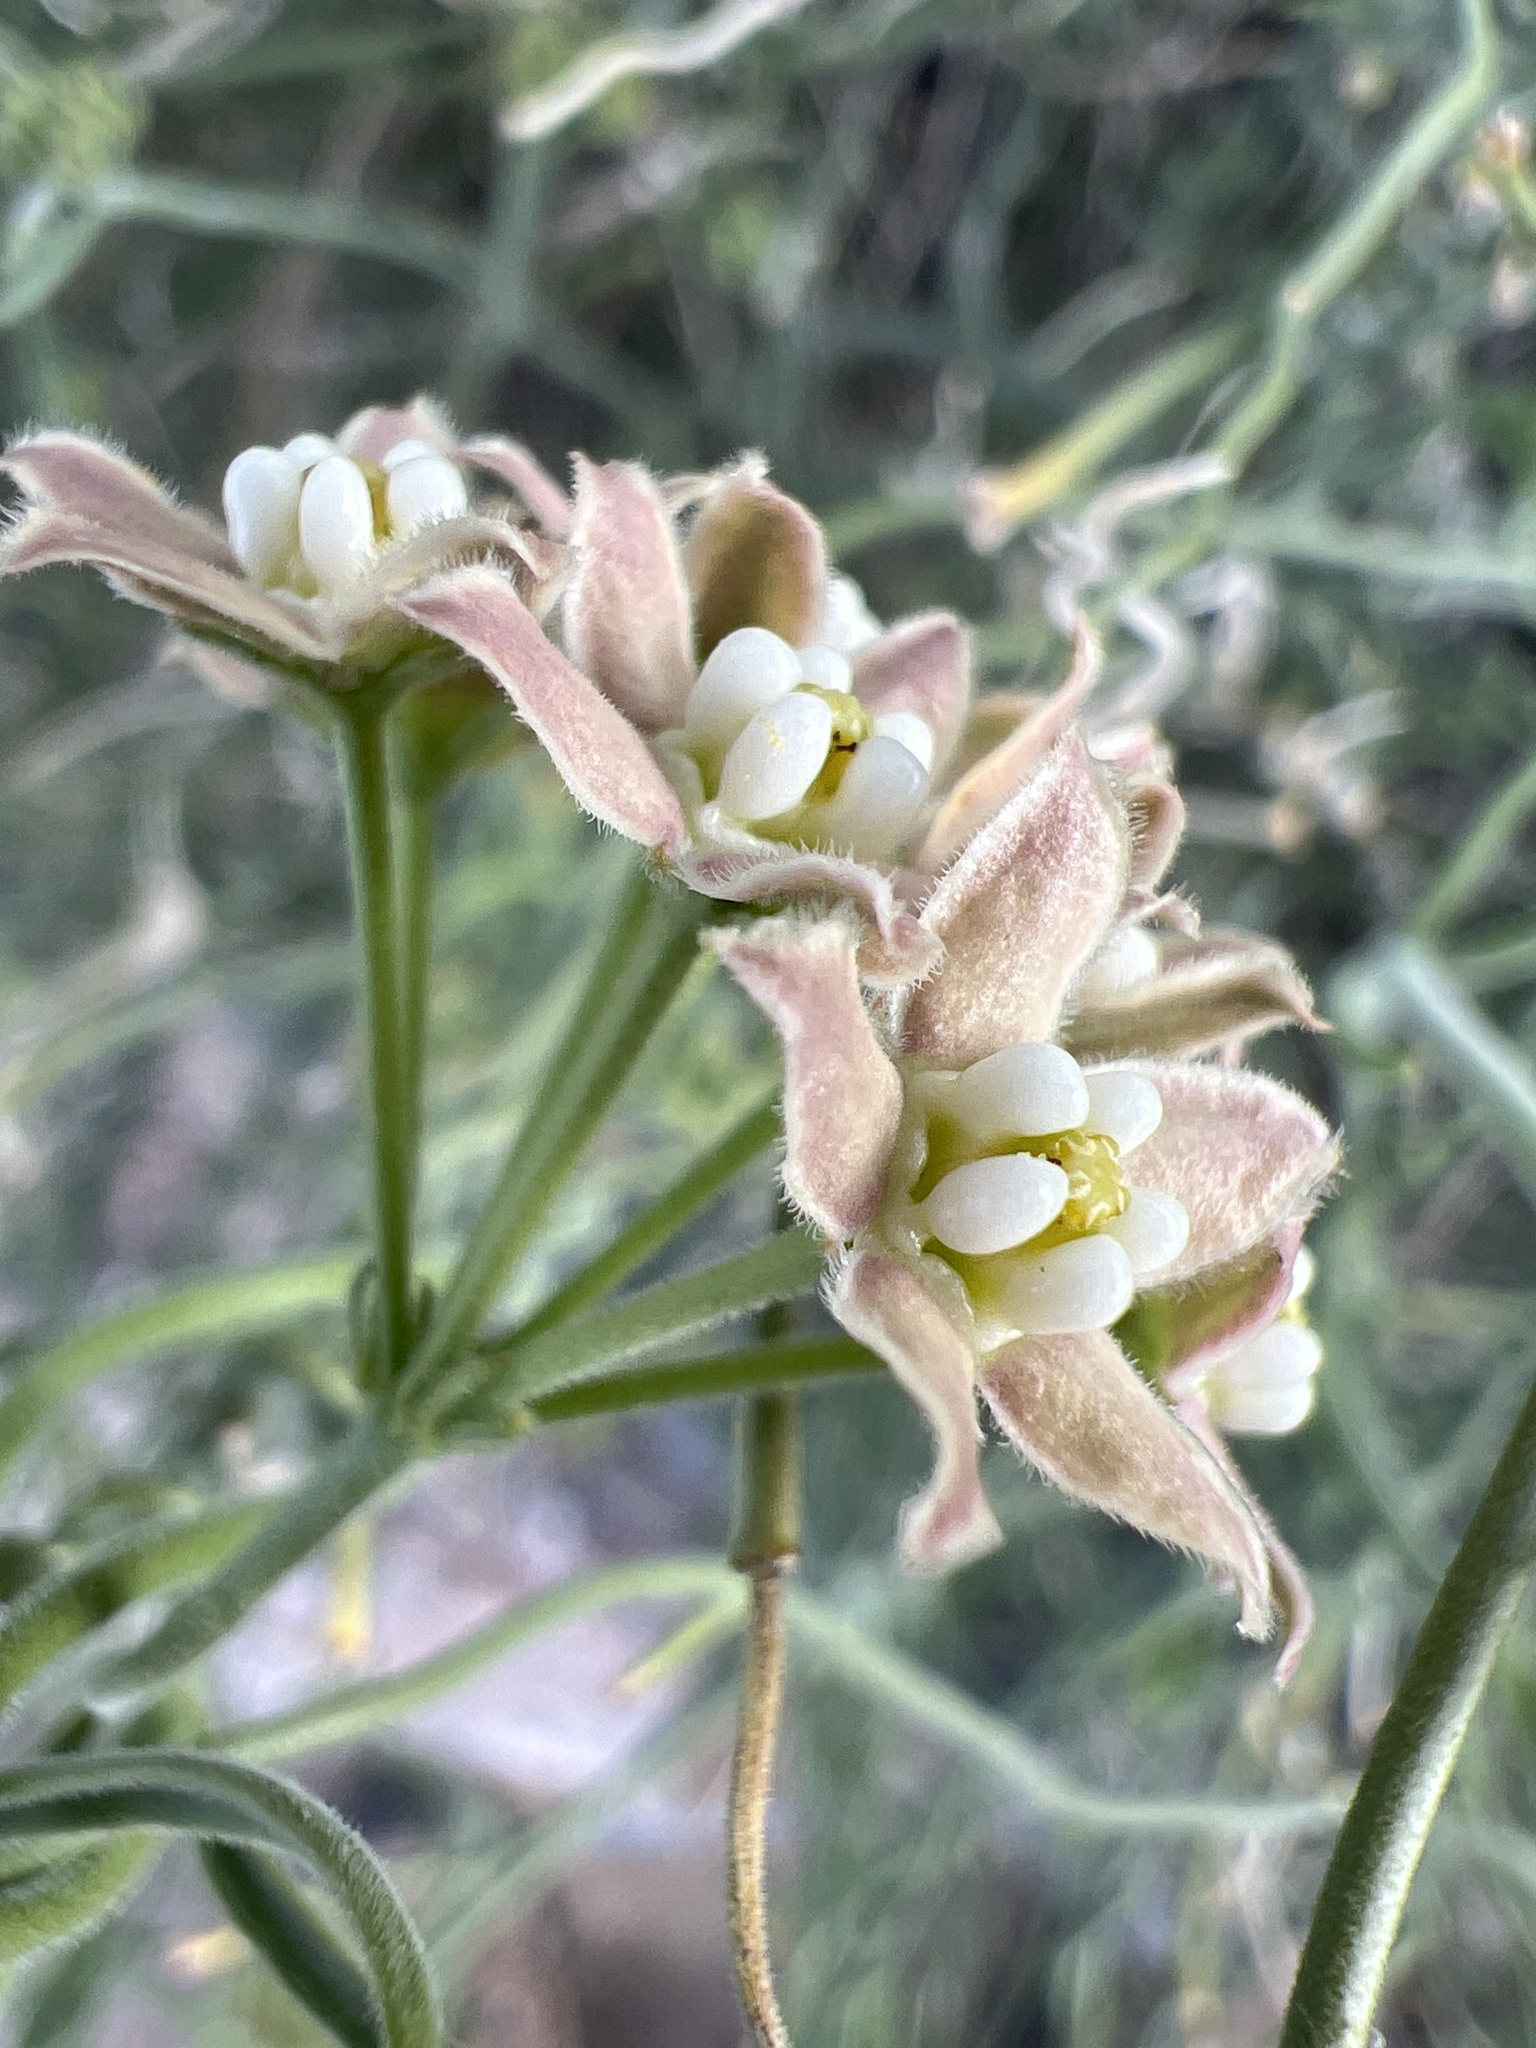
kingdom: Plantae
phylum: Tracheophyta
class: Magnoliopsida
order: Gentianales
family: Apocynaceae
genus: Funastrum
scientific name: Funastrum hirtellum
